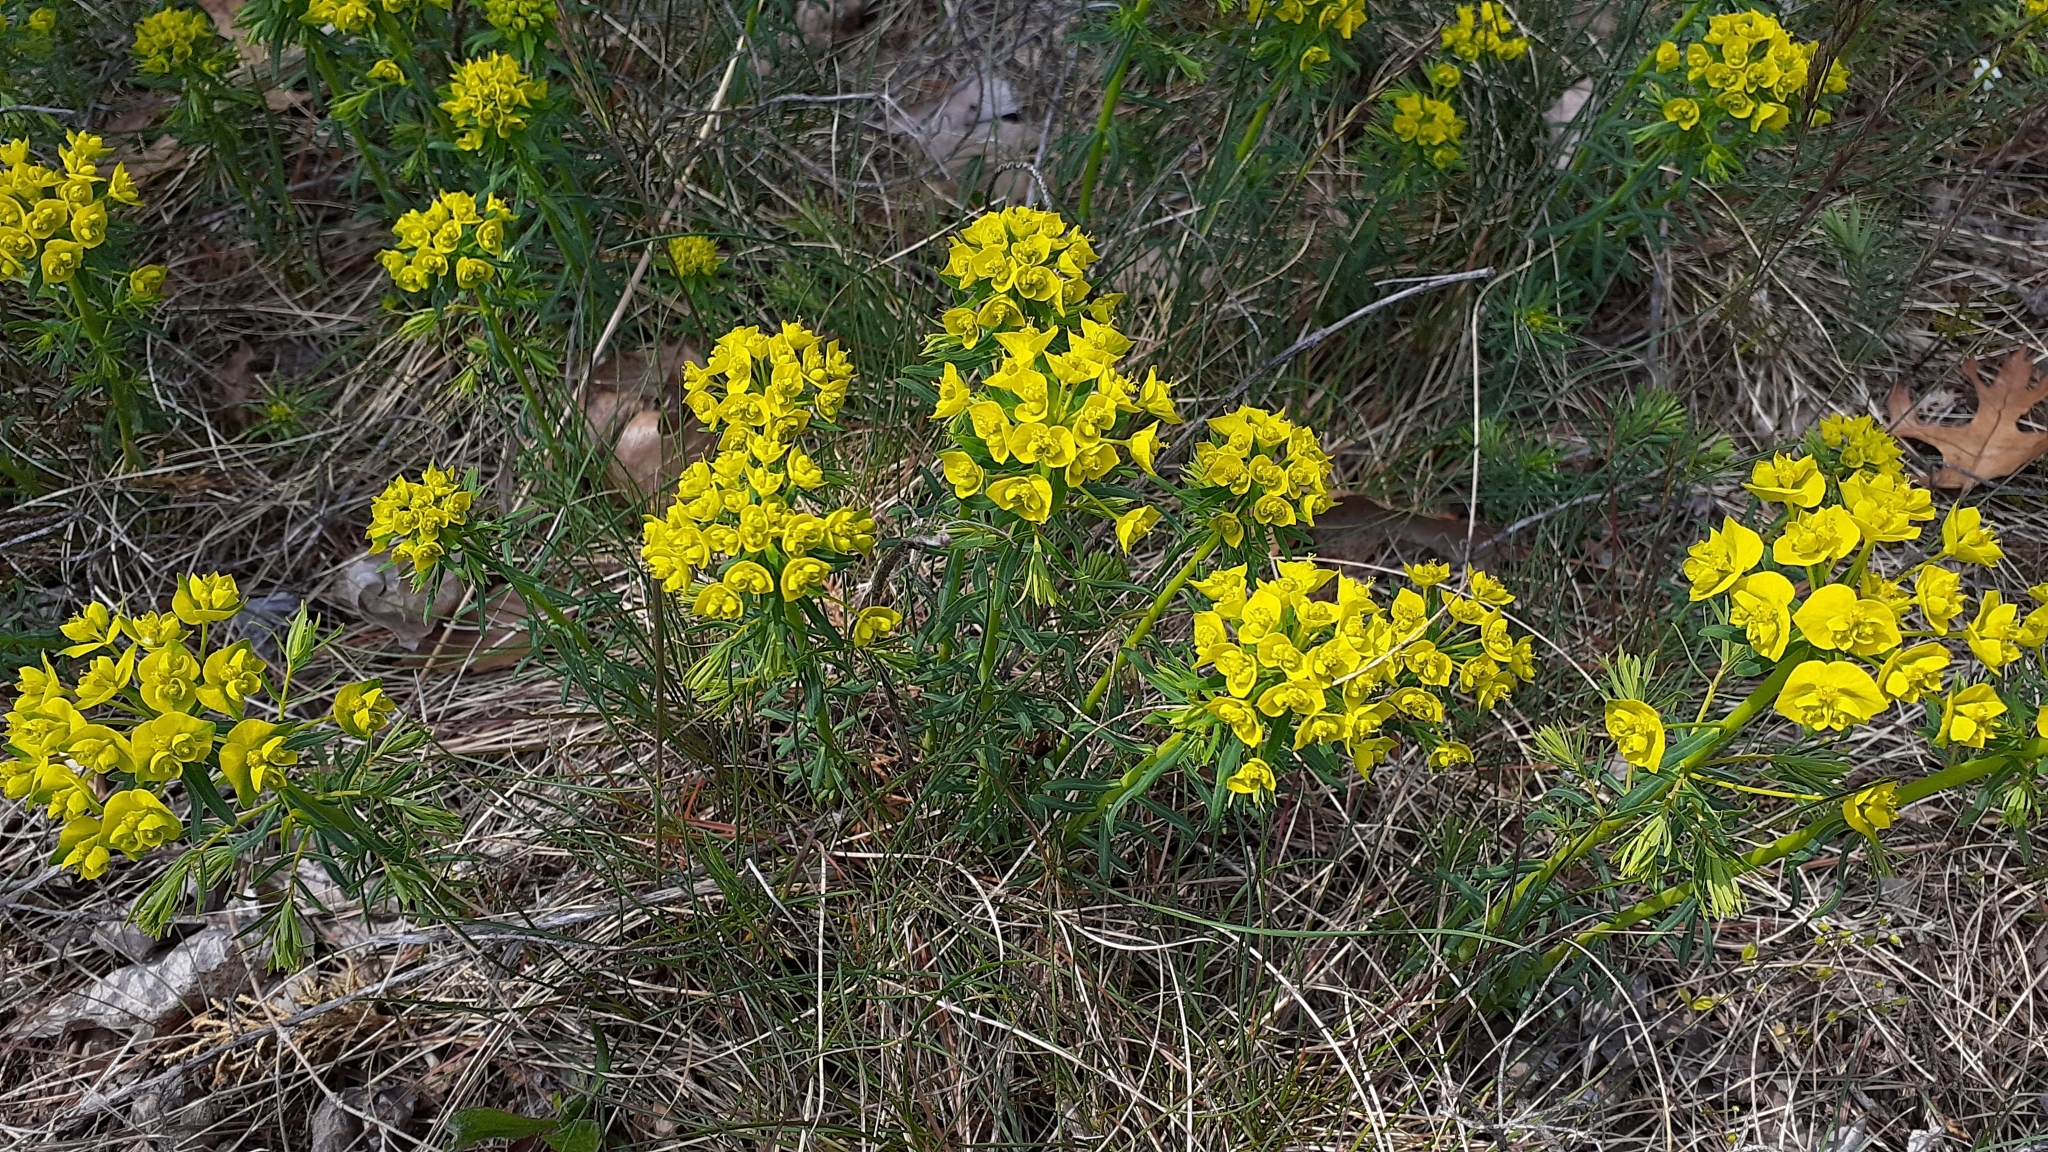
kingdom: Plantae
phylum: Tracheophyta
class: Magnoliopsida
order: Malpighiales
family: Euphorbiaceae
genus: Euphorbia
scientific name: Euphorbia cyparissias
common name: Cypress spurge
